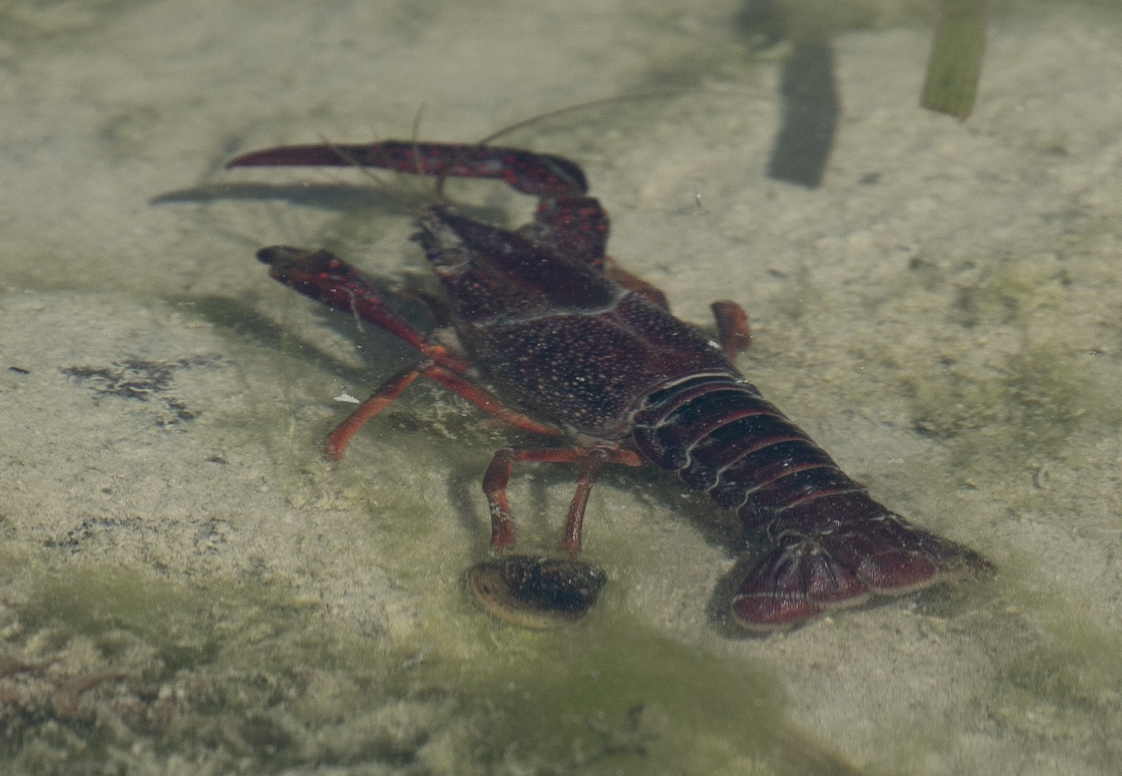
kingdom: Animalia
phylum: Arthropoda
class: Malacostraca
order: Decapoda
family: Cambaridae
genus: Procambarus
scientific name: Procambarus clarkii
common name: Red swamp crayfish
